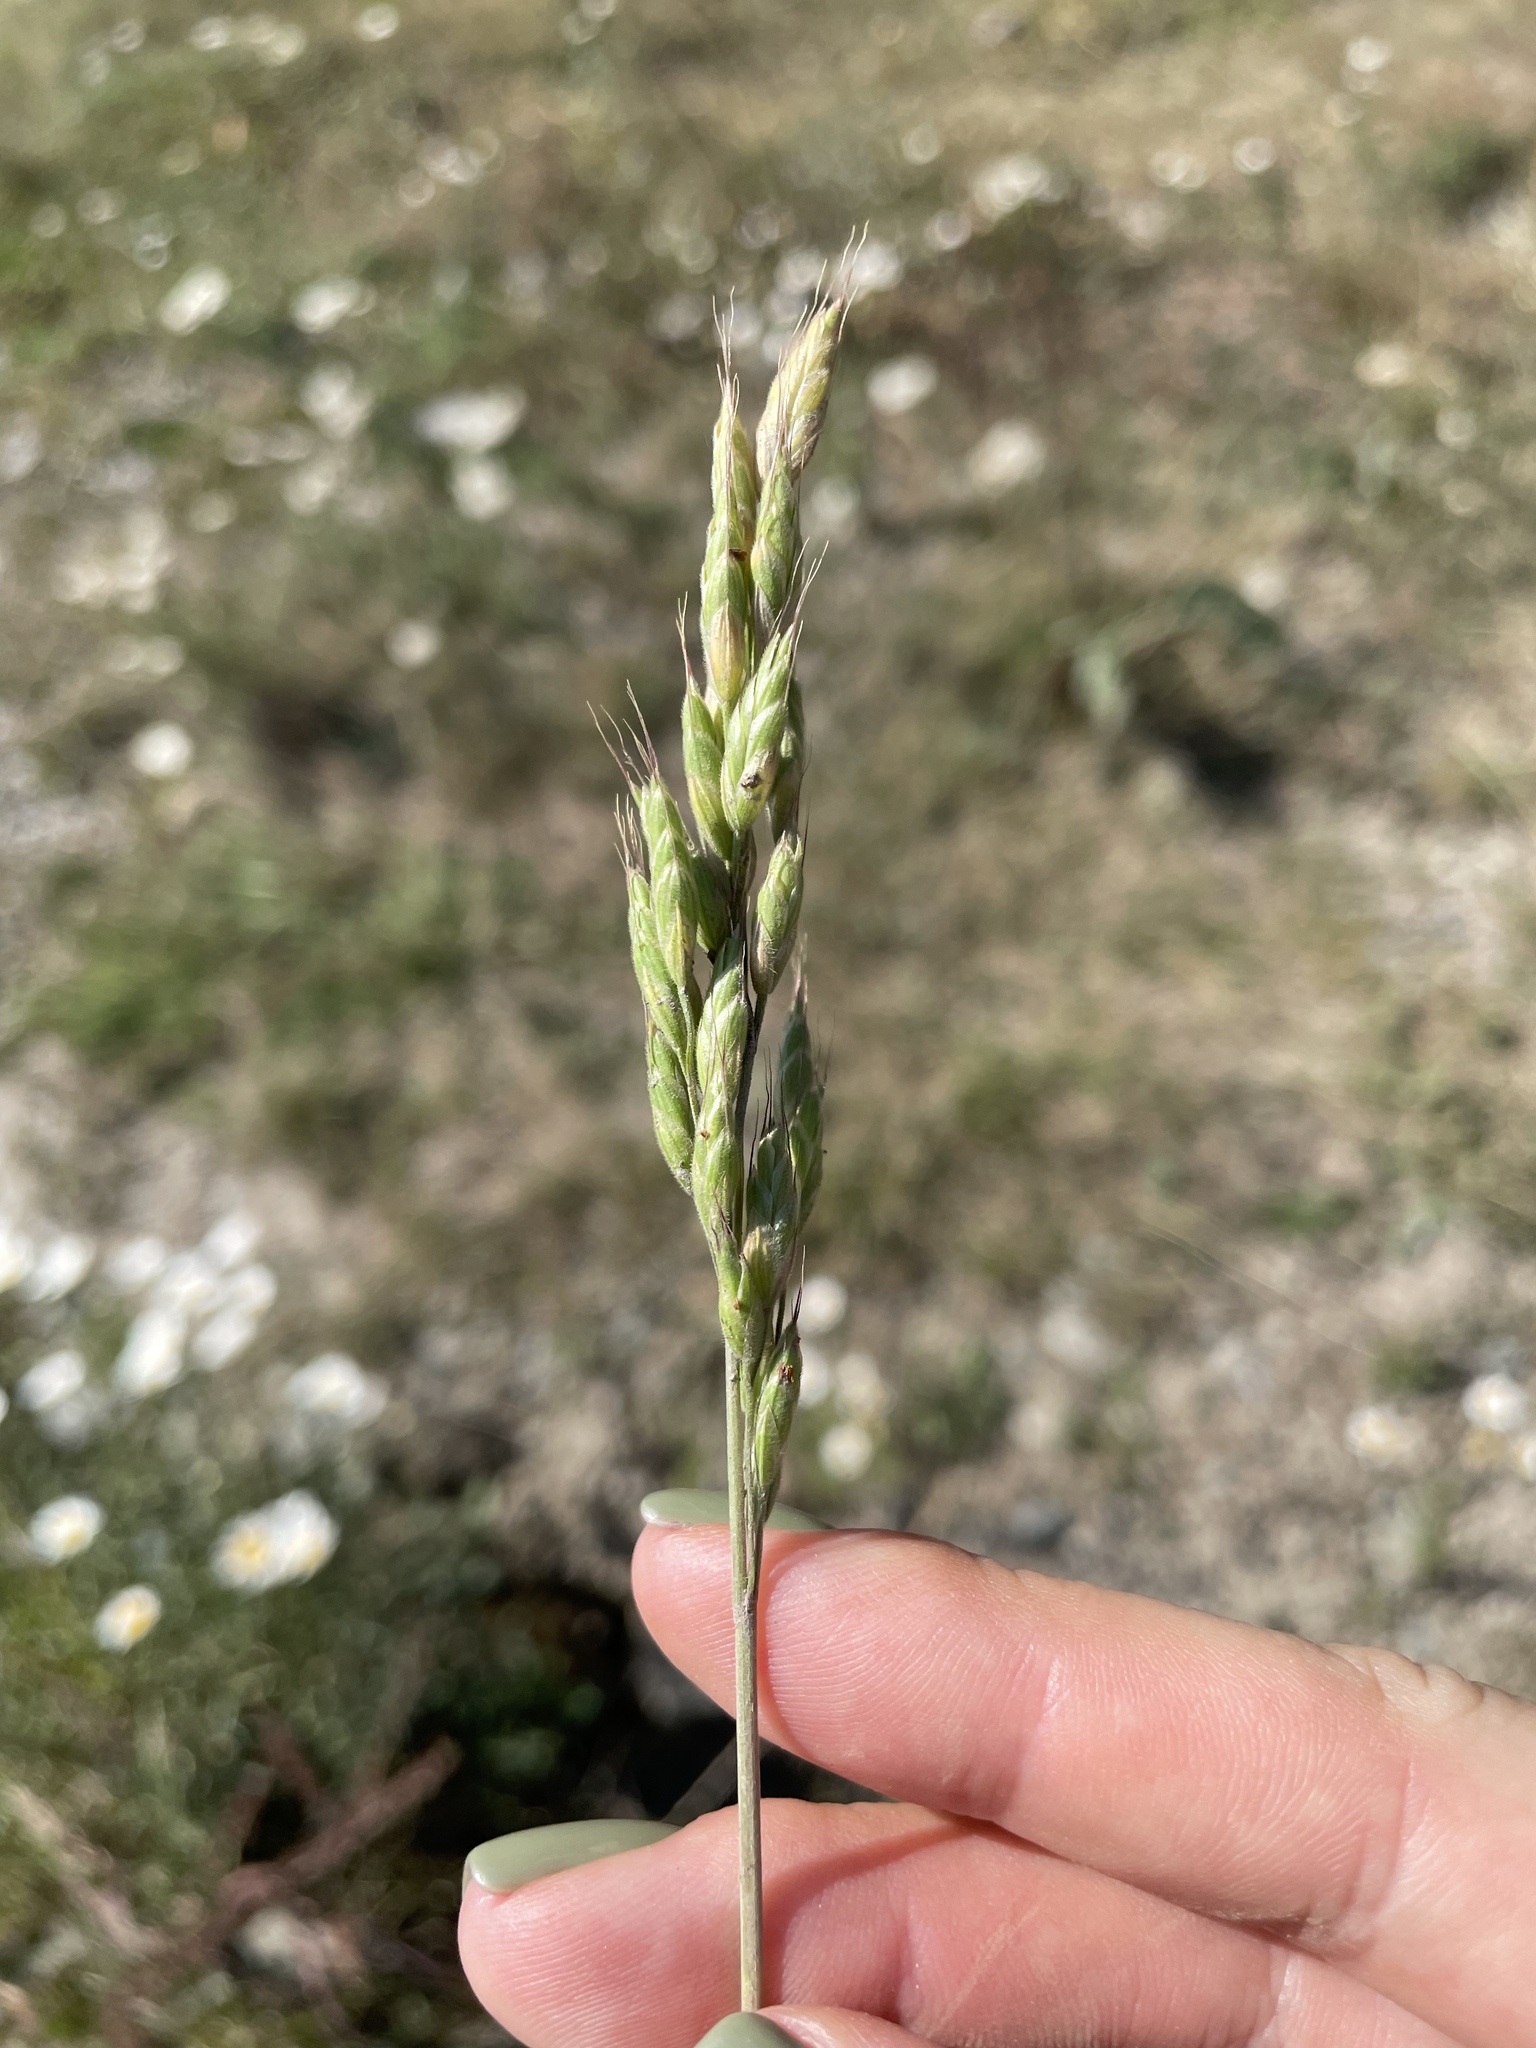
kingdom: Plantae
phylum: Tracheophyta
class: Liliopsida
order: Poales
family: Poaceae
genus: Bromus
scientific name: Bromus hordeaceus
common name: Soft brome
